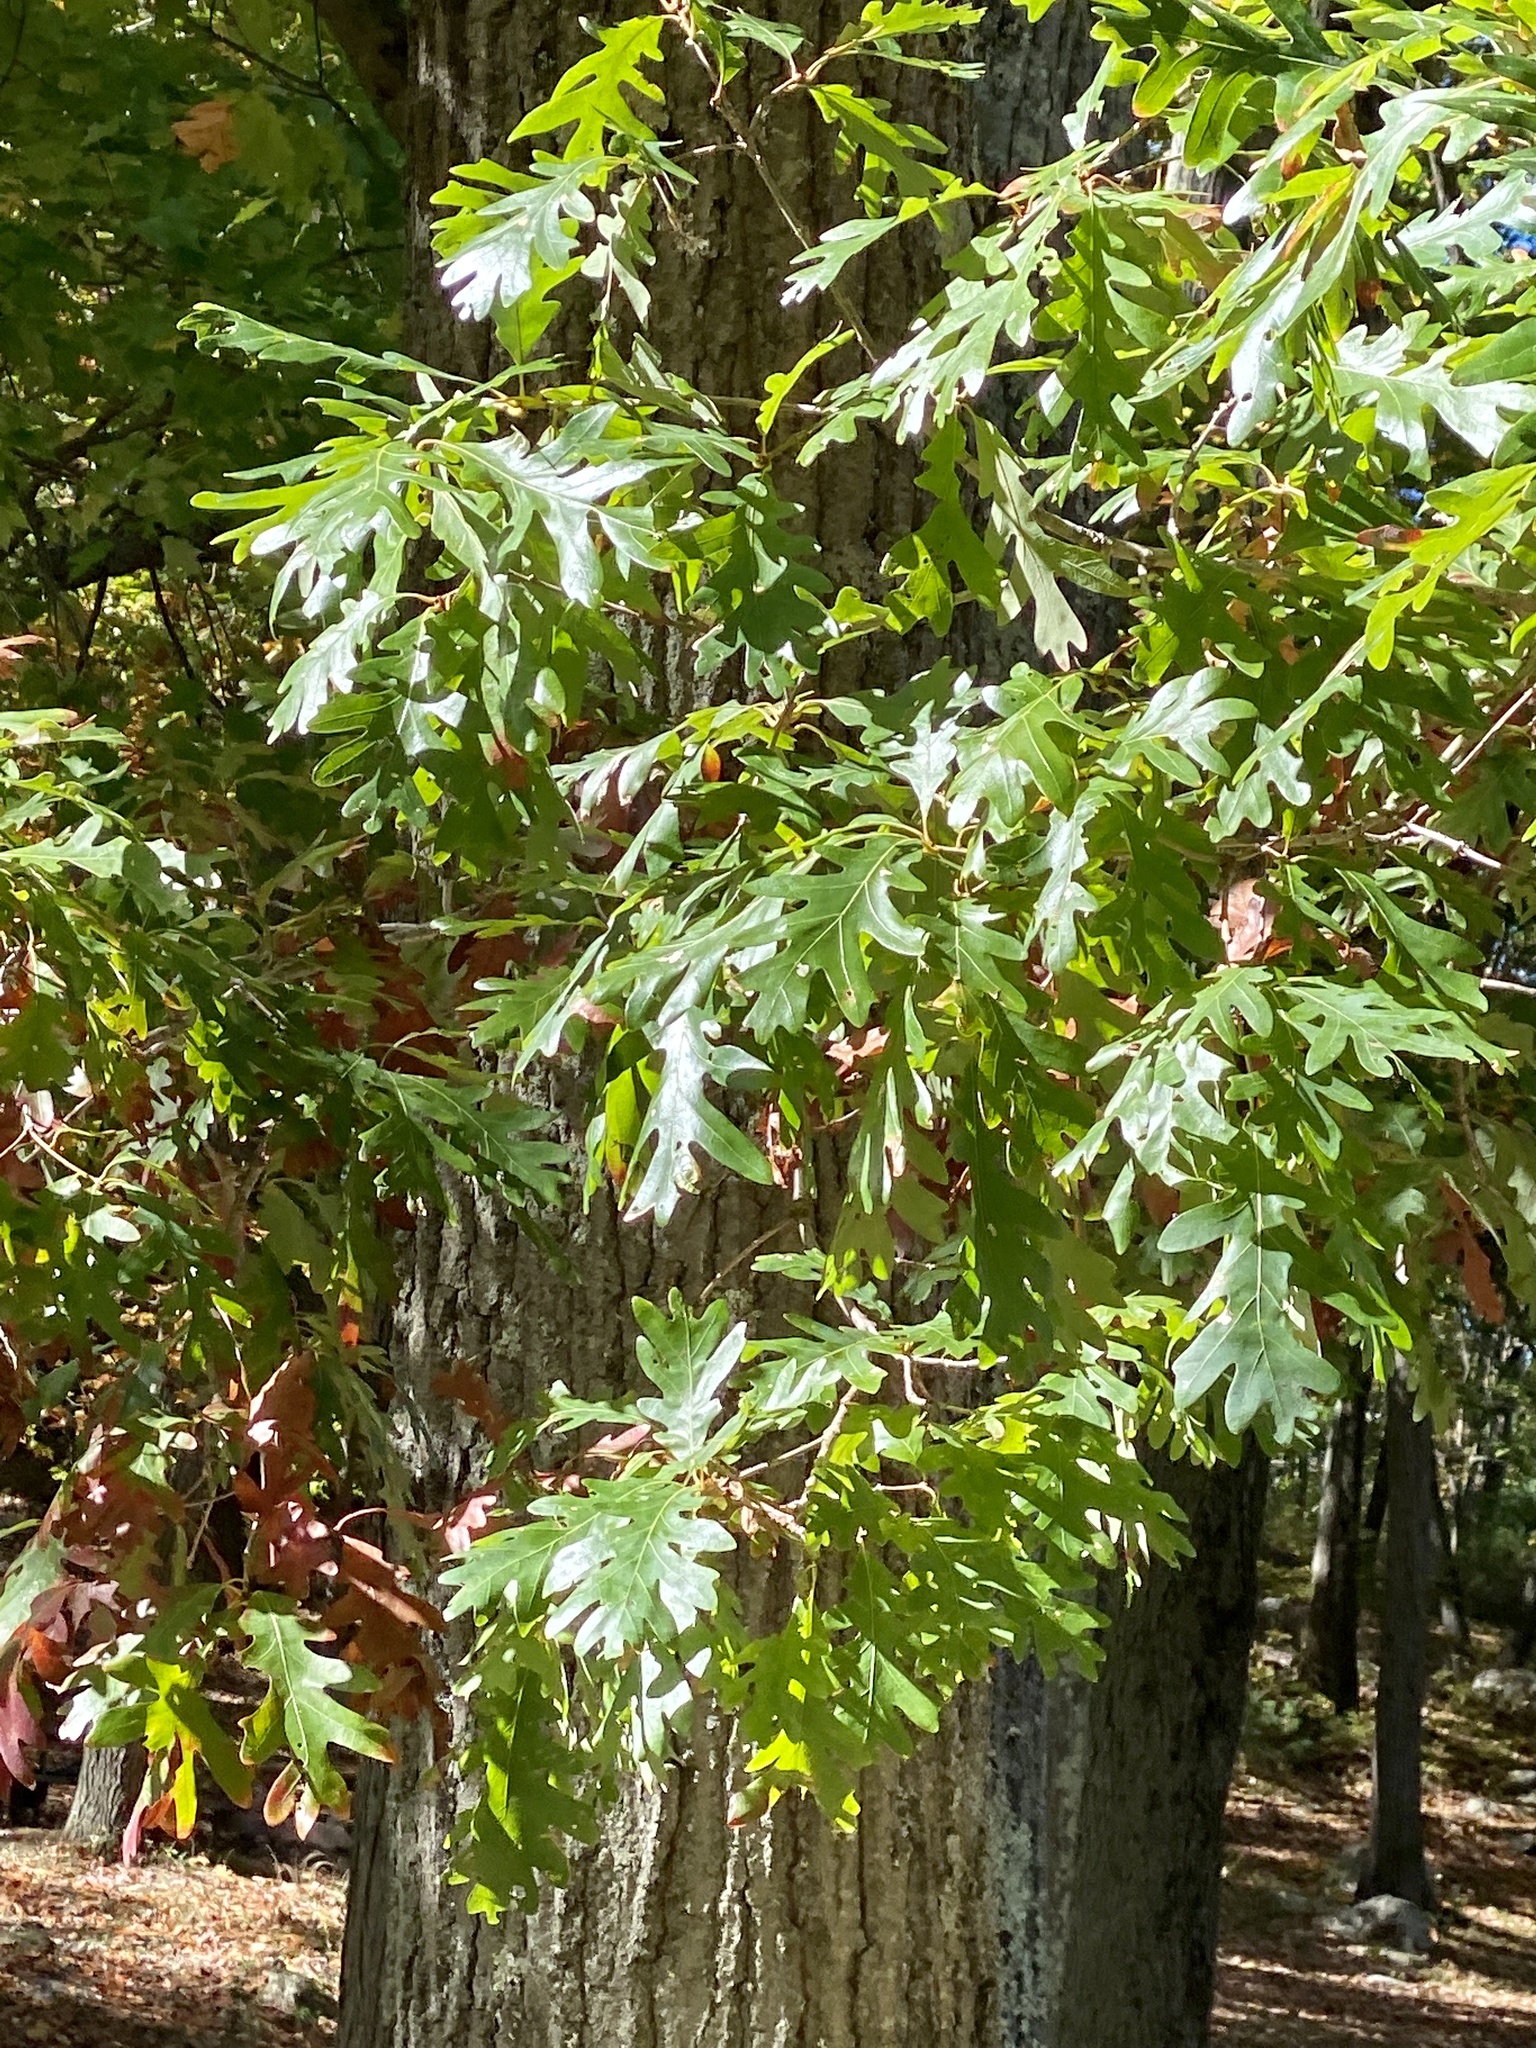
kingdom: Plantae
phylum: Tracheophyta
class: Magnoliopsida
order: Fagales
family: Fagaceae
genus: Quercus
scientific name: Quercus alba
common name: White oak
